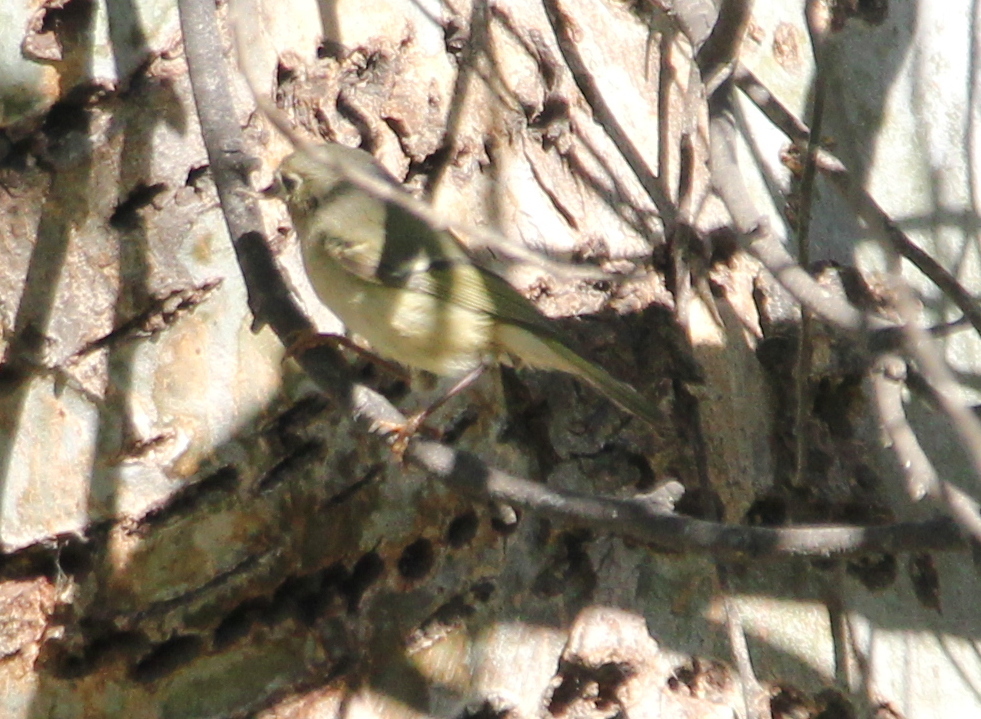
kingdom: Animalia
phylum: Chordata
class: Aves
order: Passeriformes
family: Regulidae
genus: Regulus
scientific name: Regulus calendula
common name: Ruby-crowned kinglet
